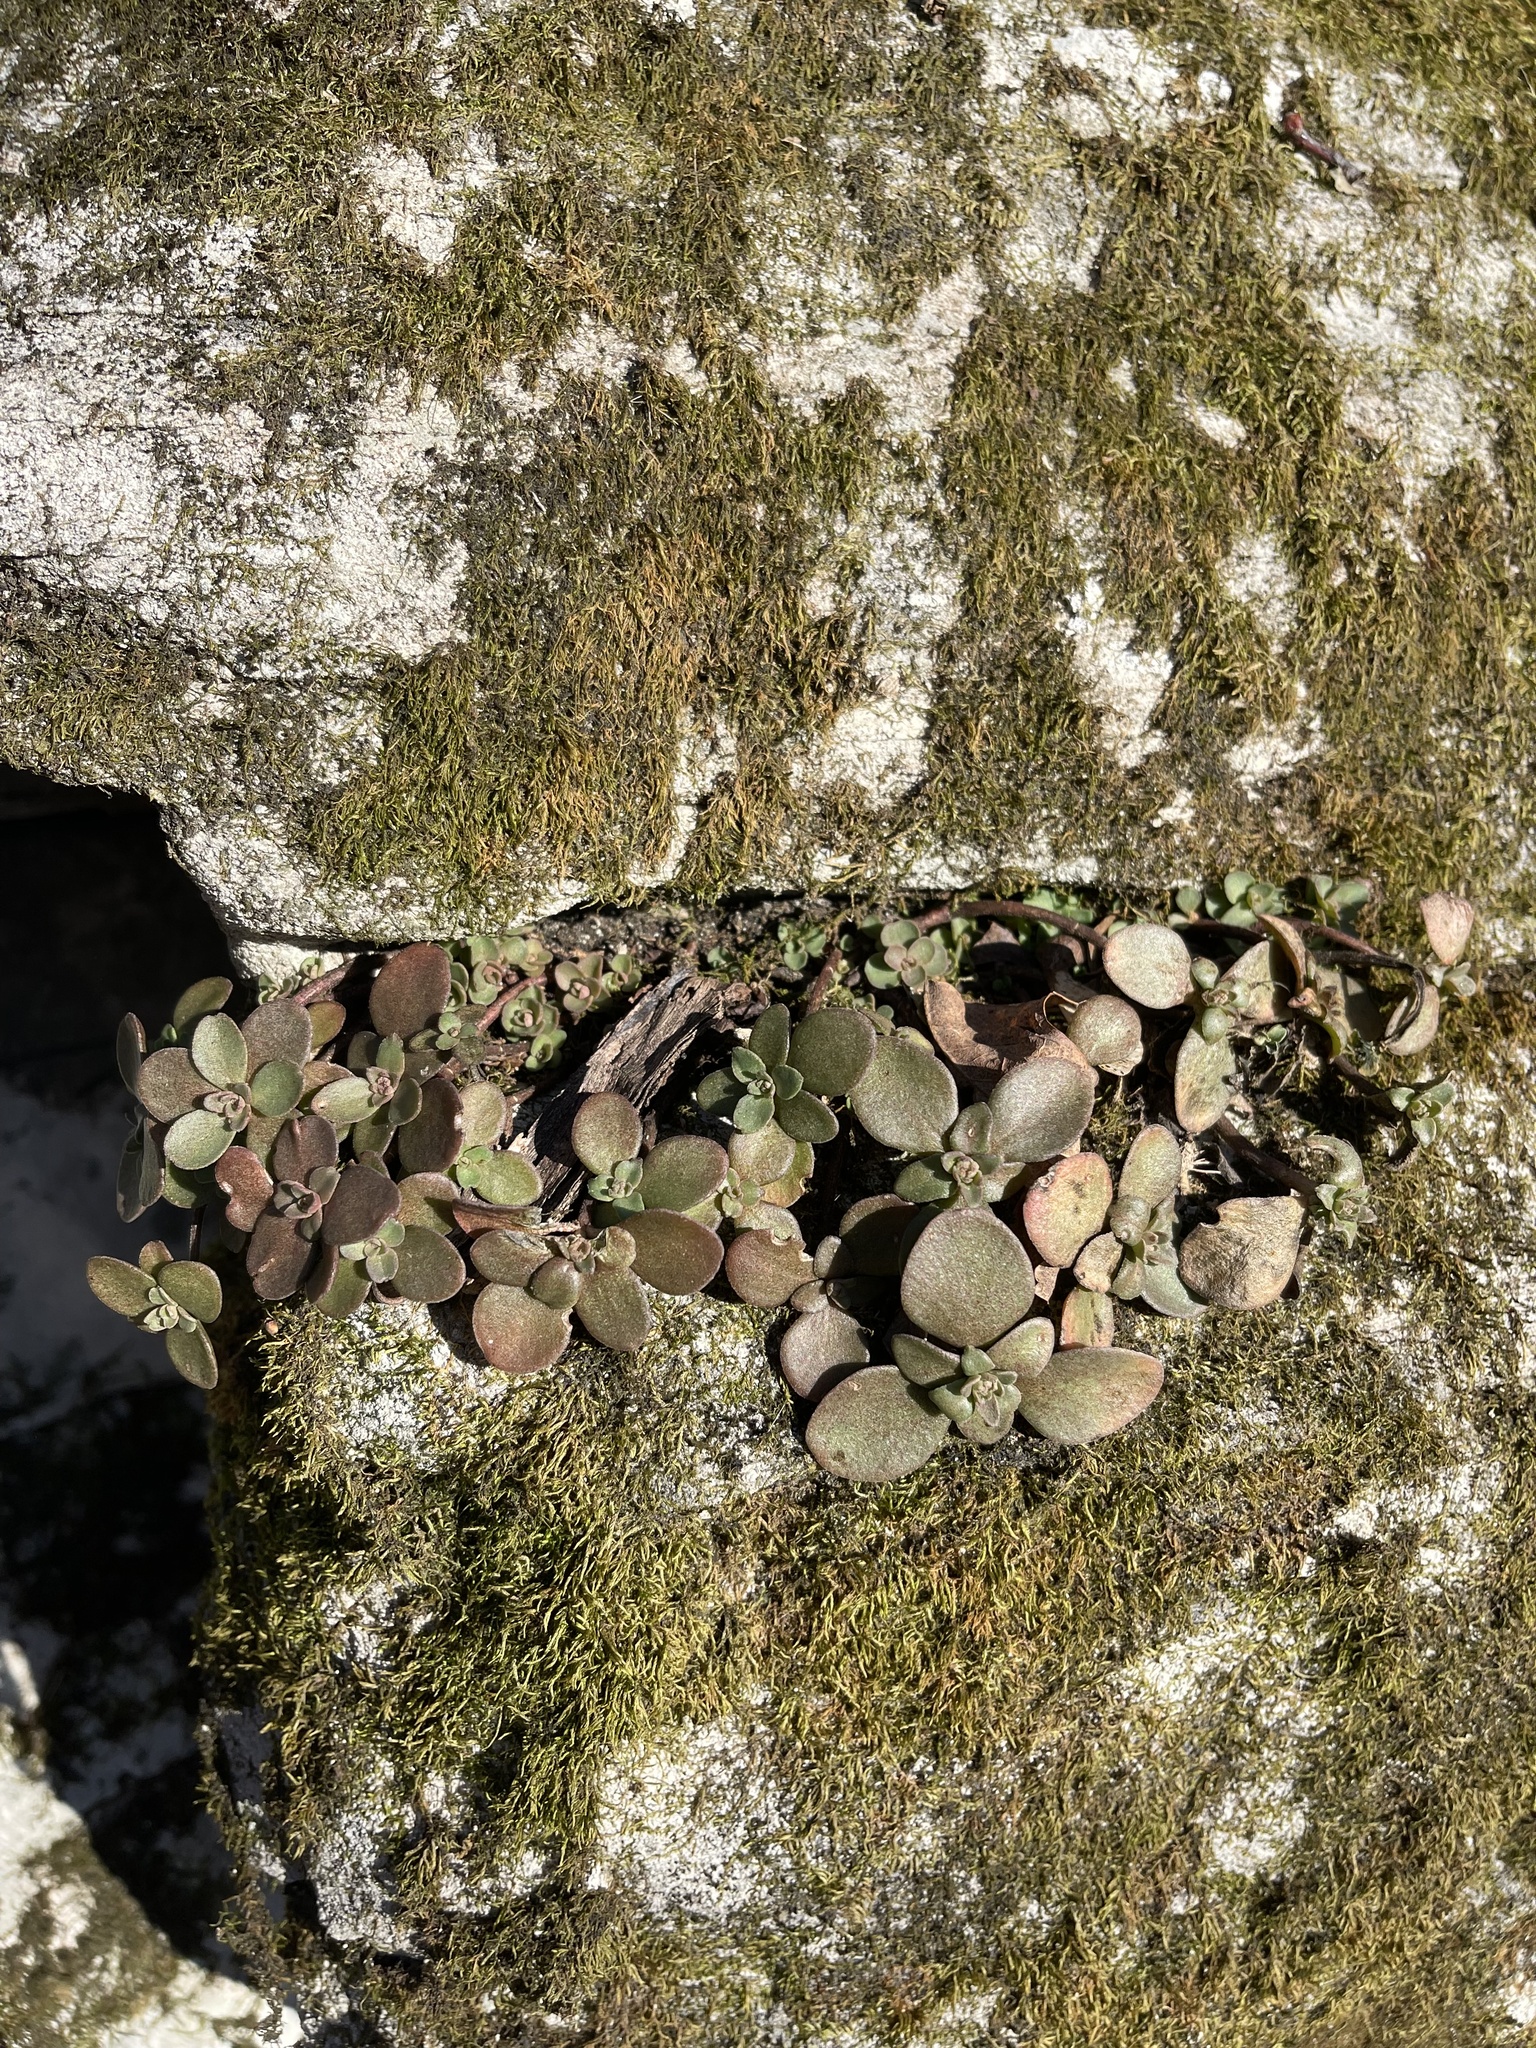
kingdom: Plantae
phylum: Tracheophyta
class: Magnoliopsida
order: Saxifragales
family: Crassulaceae
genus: Sedum
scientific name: Sedum ternatum
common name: Wild stonecrop
